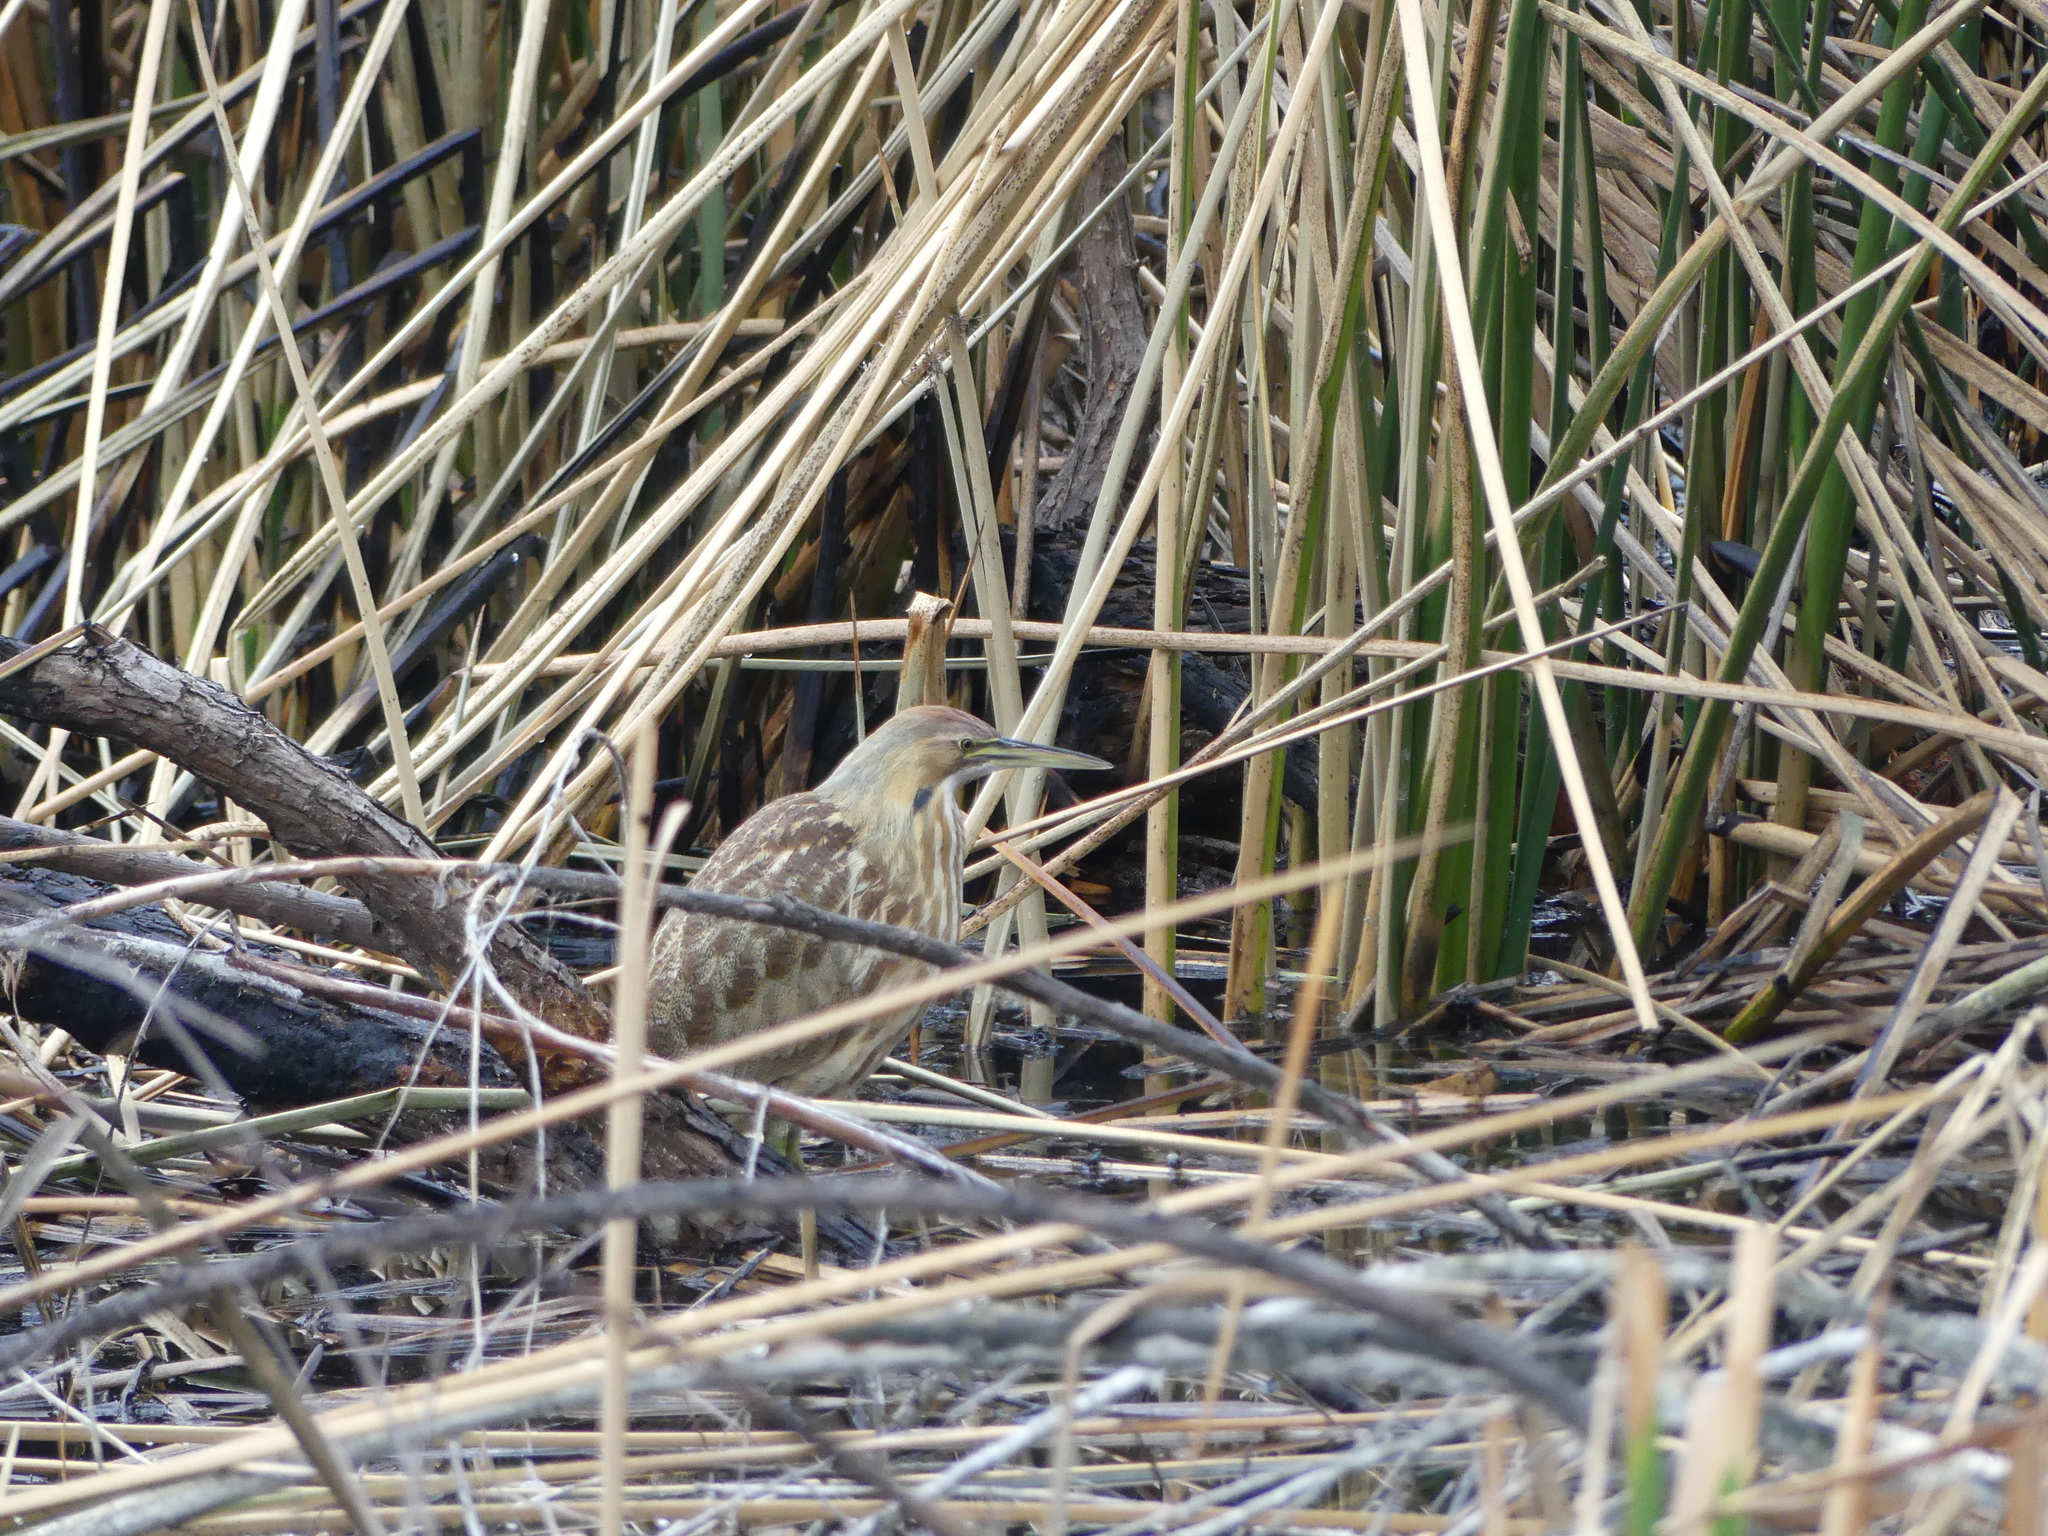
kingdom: Animalia
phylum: Chordata
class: Aves
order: Pelecaniformes
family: Ardeidae
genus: Botaurus
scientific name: Botaurus lentiginosus
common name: American bittern
